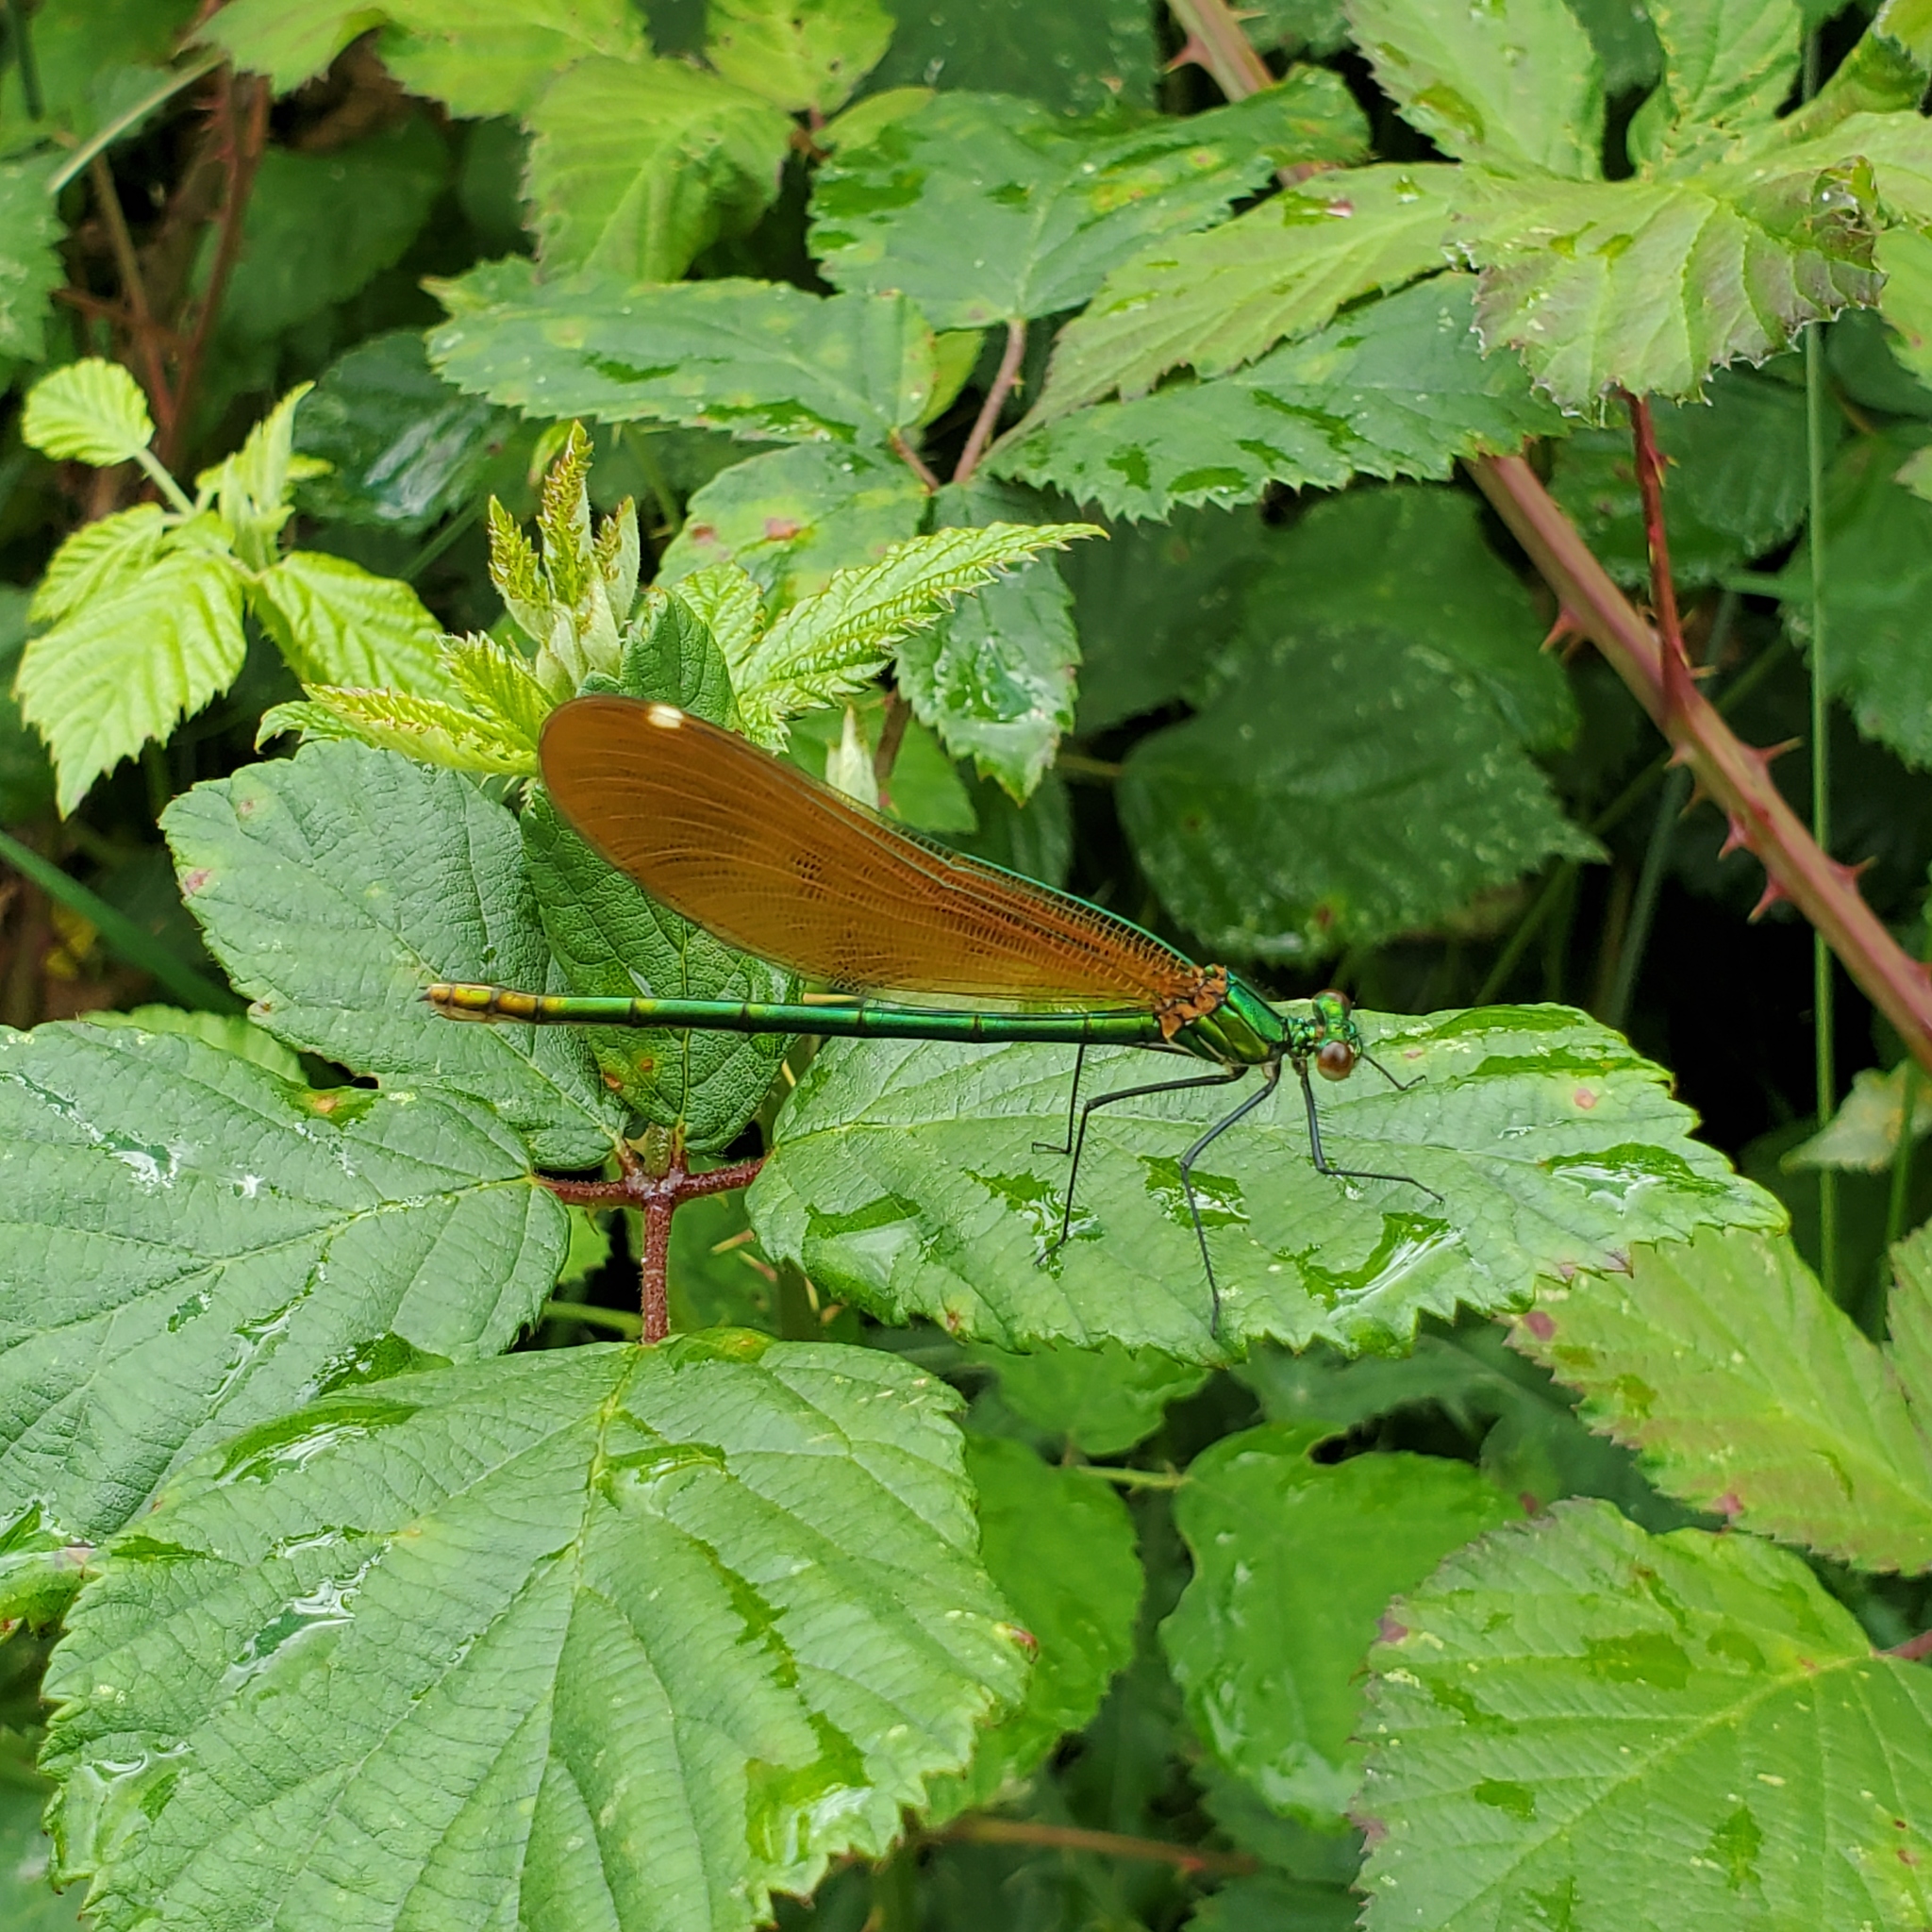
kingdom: Animalia
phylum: Arthropoda
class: Insecta
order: Odonata
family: Calopterygidae
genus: Calopteryx
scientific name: Calopteryx virgo
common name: Beautiful demoiselle
